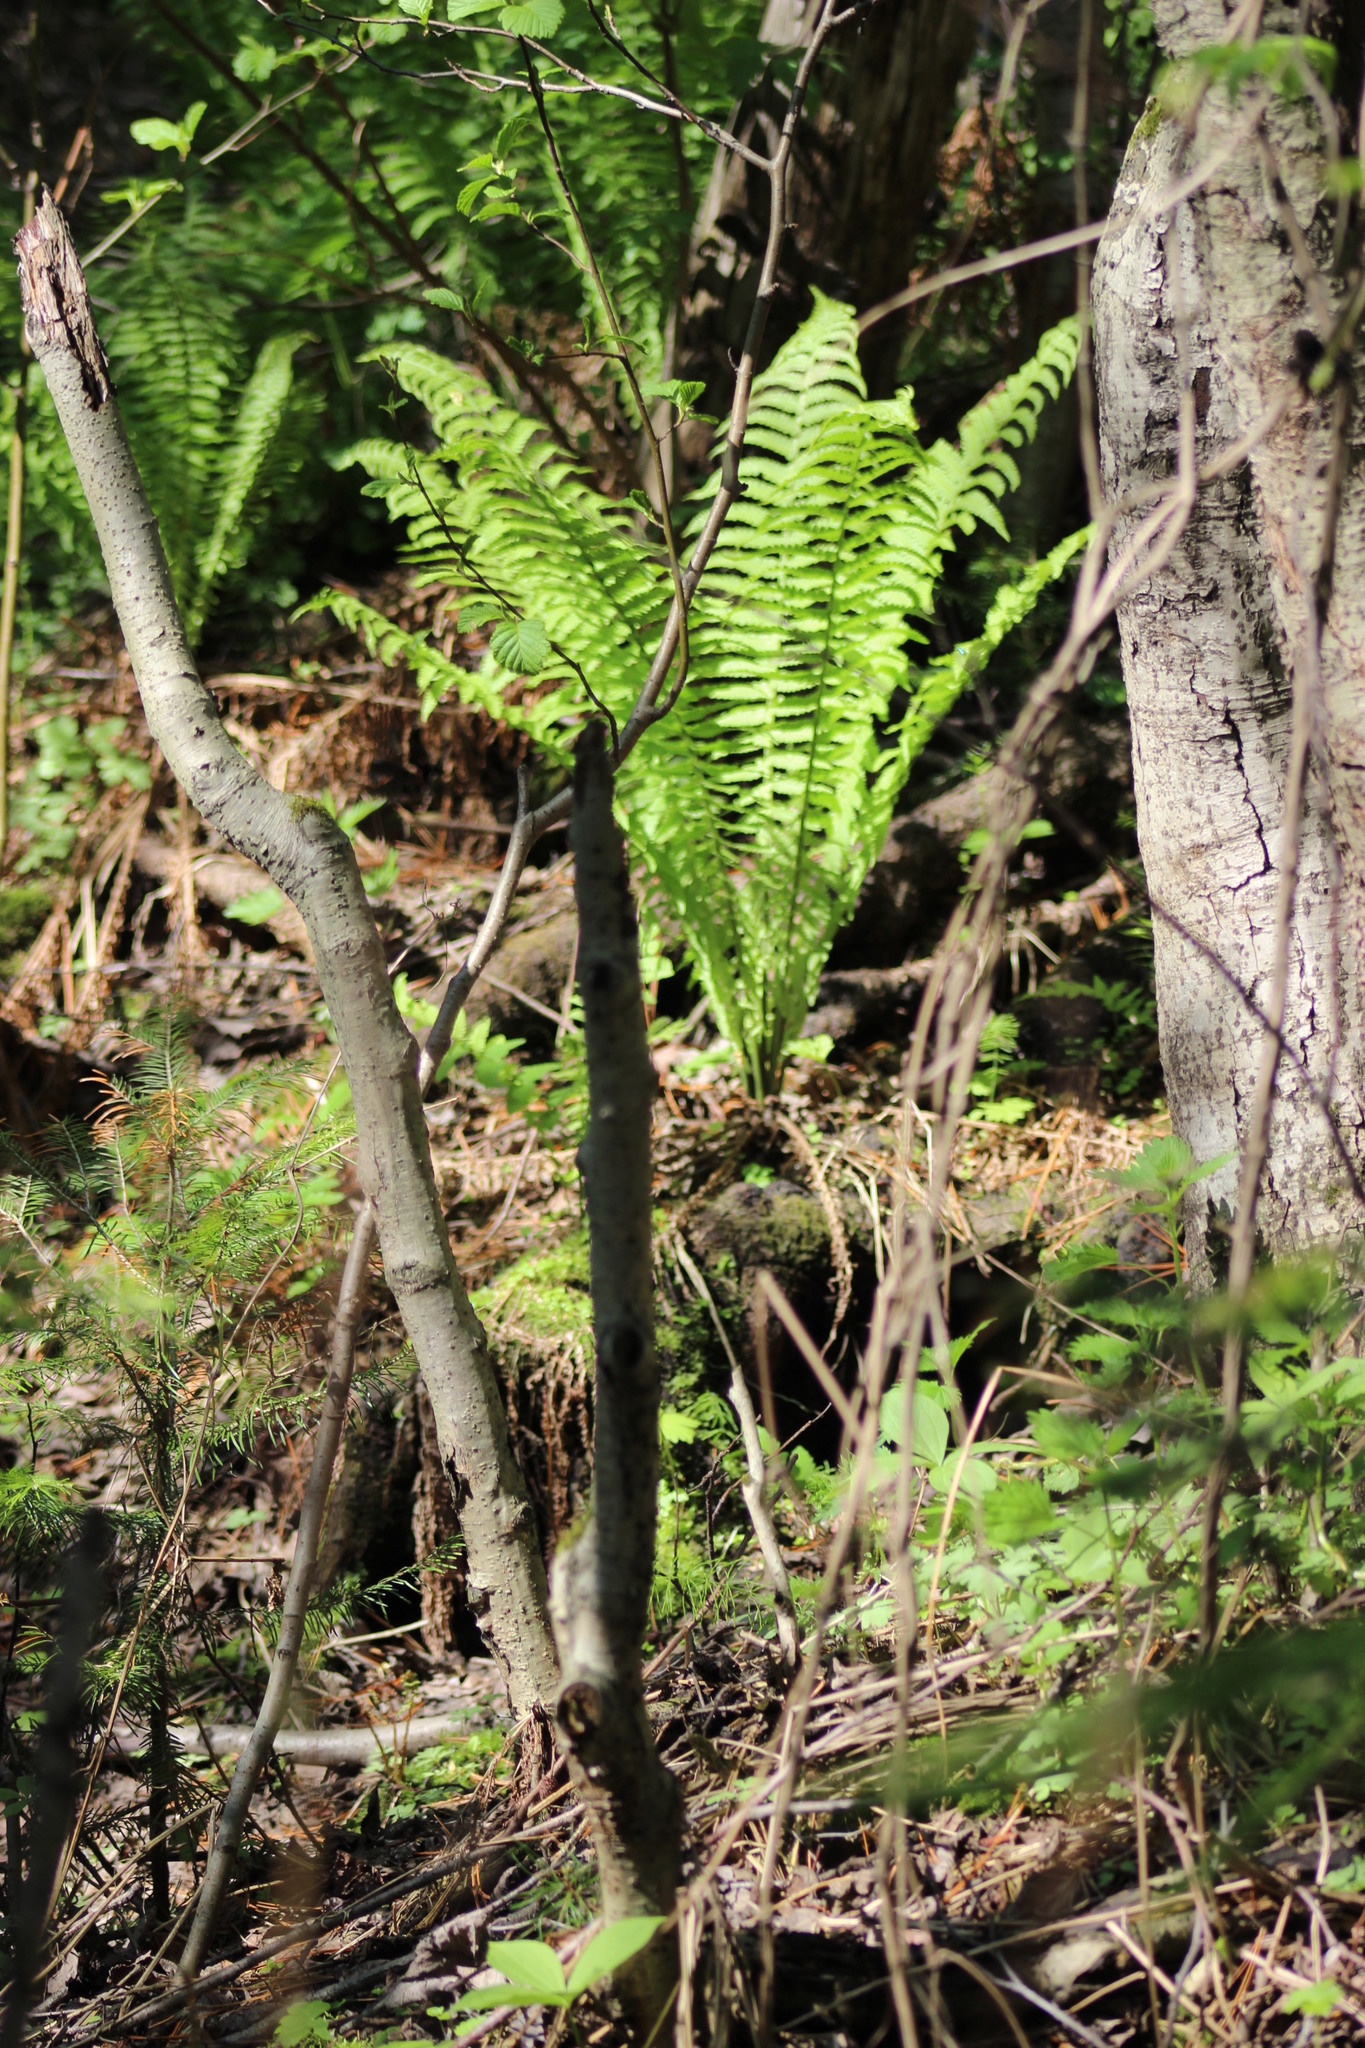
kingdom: Plantae
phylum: Tracheophyta
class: Polypodiopsida
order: Polypodiales
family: Onocleaceae
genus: Matteuccia
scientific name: Matteuccia struthiopteris
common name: Ostrich fern
